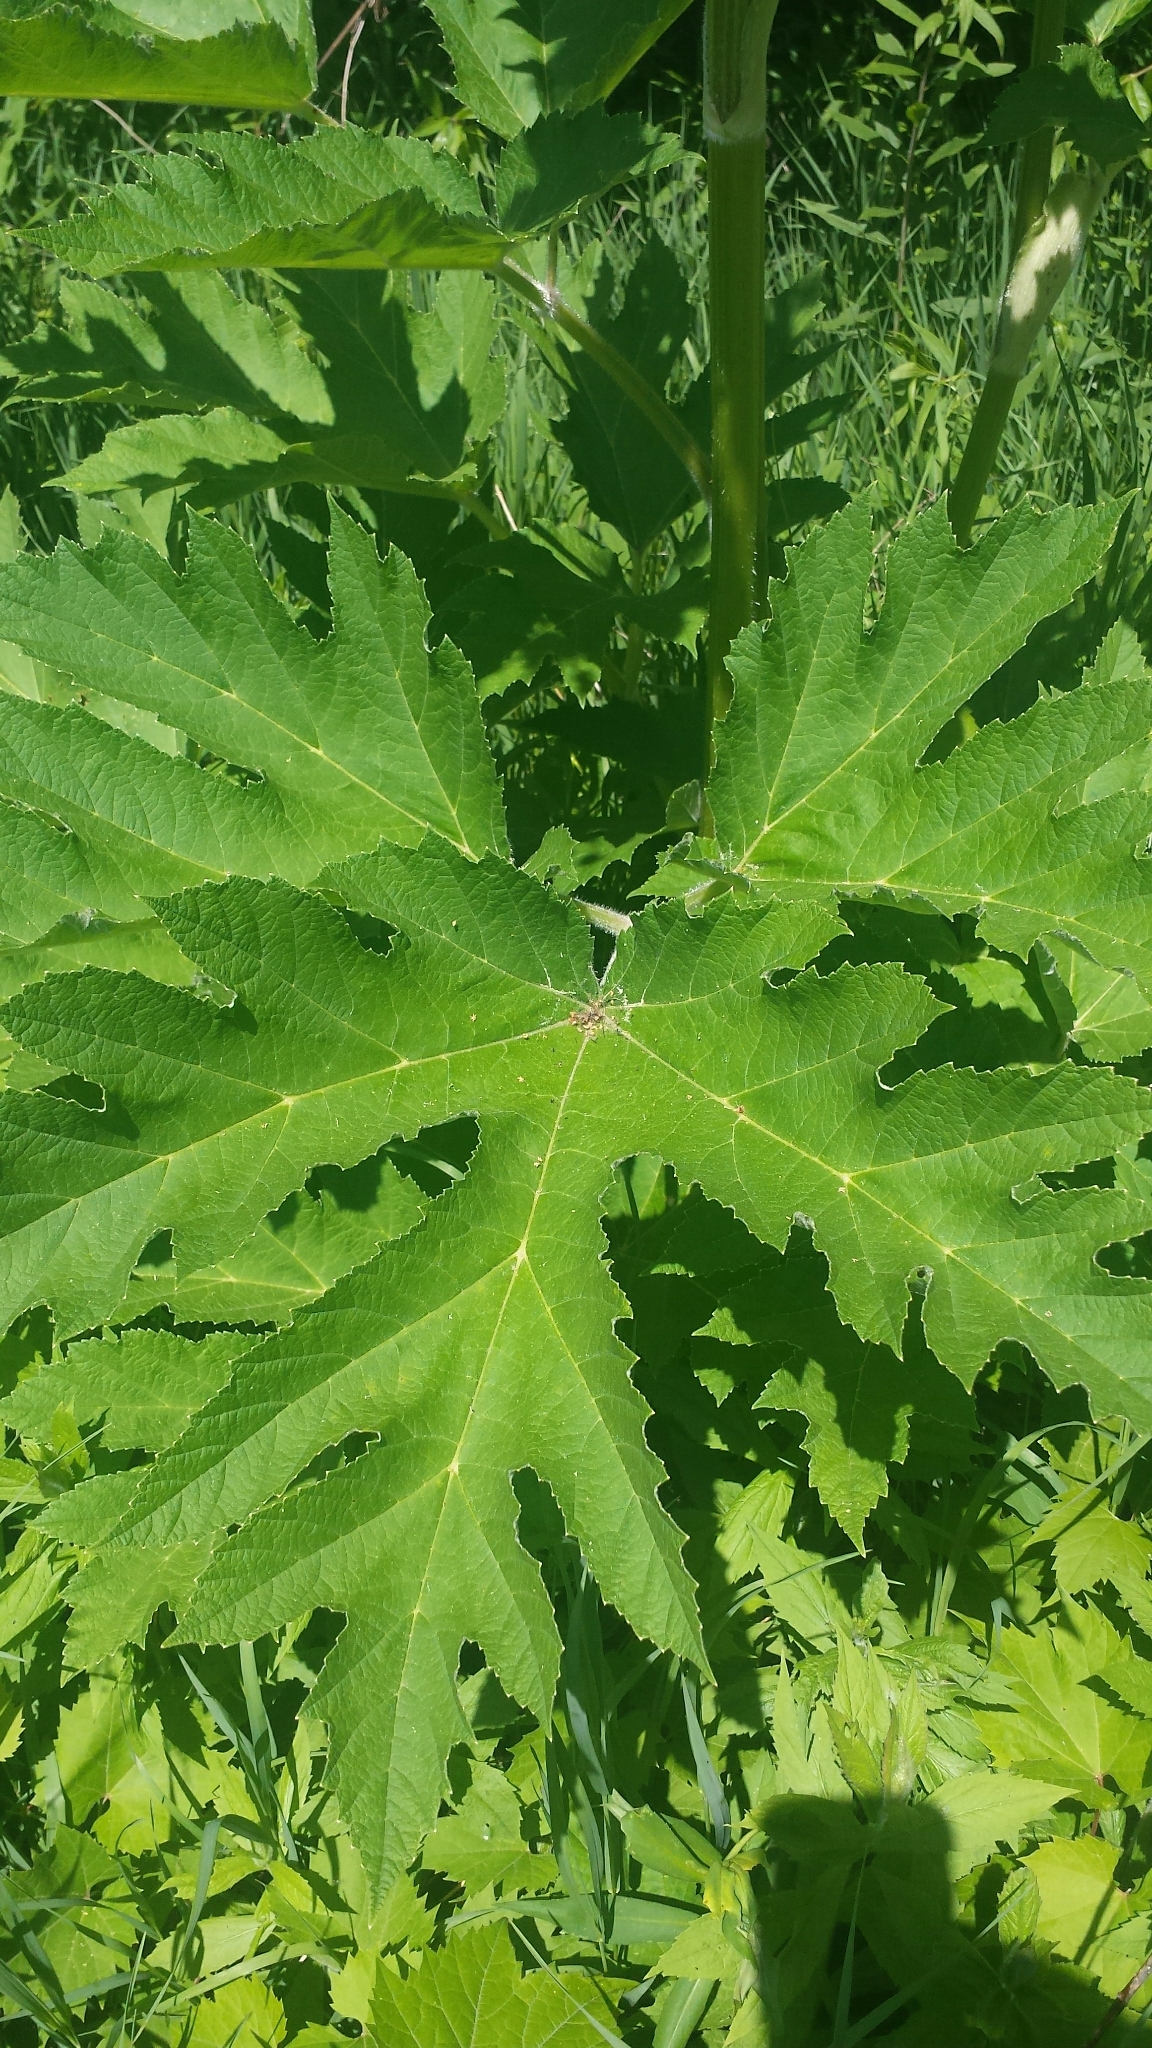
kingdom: Plantae
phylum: Tracheophyta
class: Magnoliopsida
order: Apiales
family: Apiaceae
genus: Heracleum
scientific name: Heracleum maximum
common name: American cow parsnip
